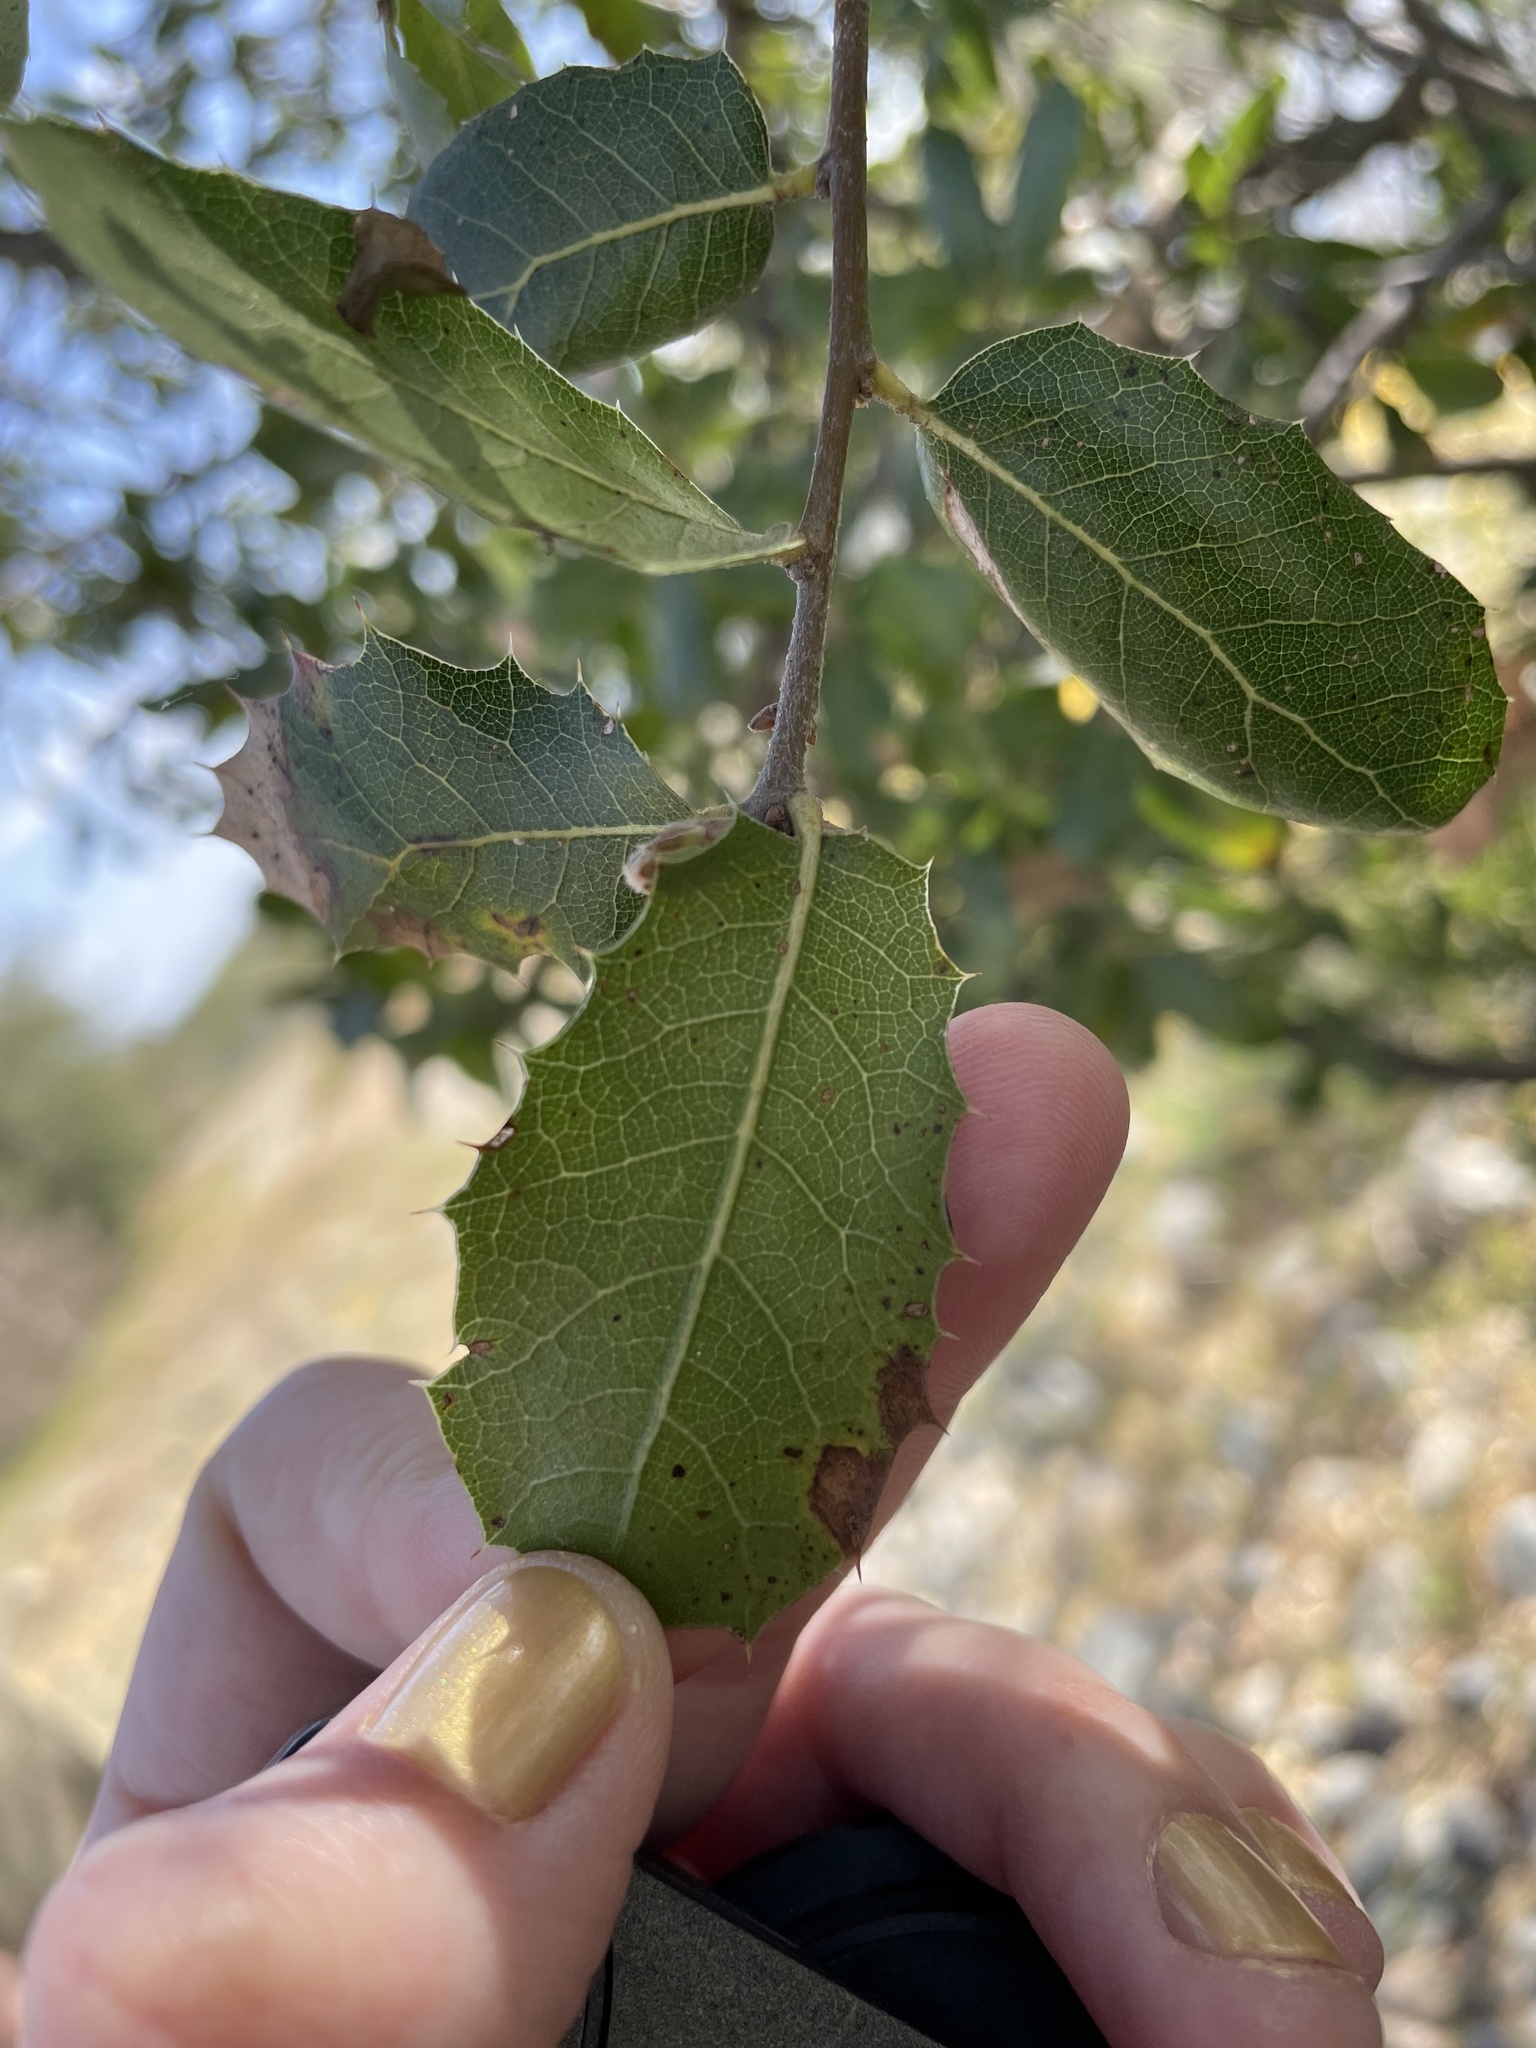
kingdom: Plantae
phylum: Tracheophyta
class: Magnoliopsida
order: Fagales
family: Fagaceae
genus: Quercus
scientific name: Quercus wislizeni
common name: Interior live oak
